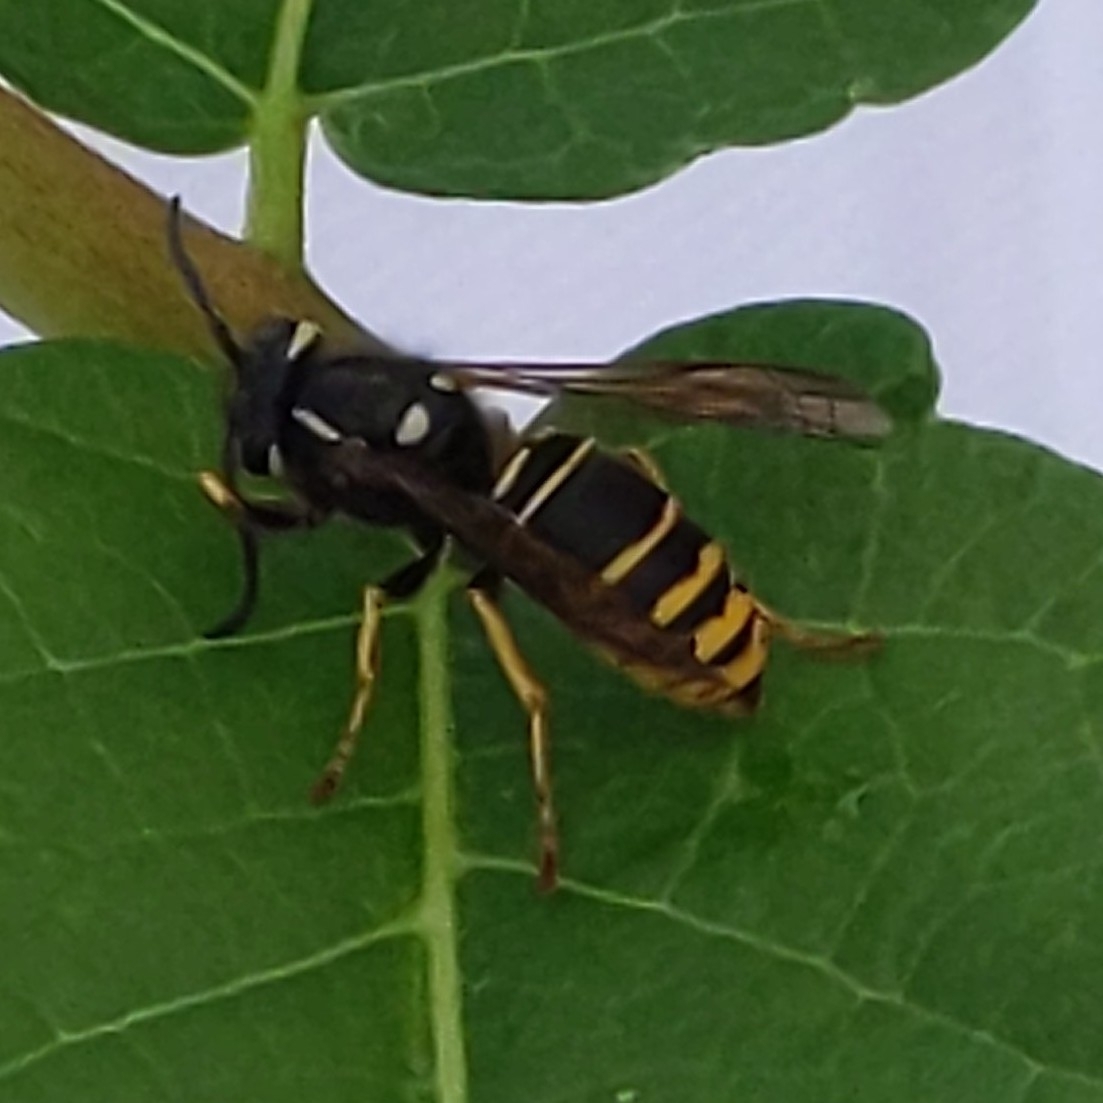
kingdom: Animalia
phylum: Arthropoda
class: Insecta
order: Hymenoptera
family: Vespidae
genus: Vespula
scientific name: Vespula vidua
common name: Widow yellowjacket
